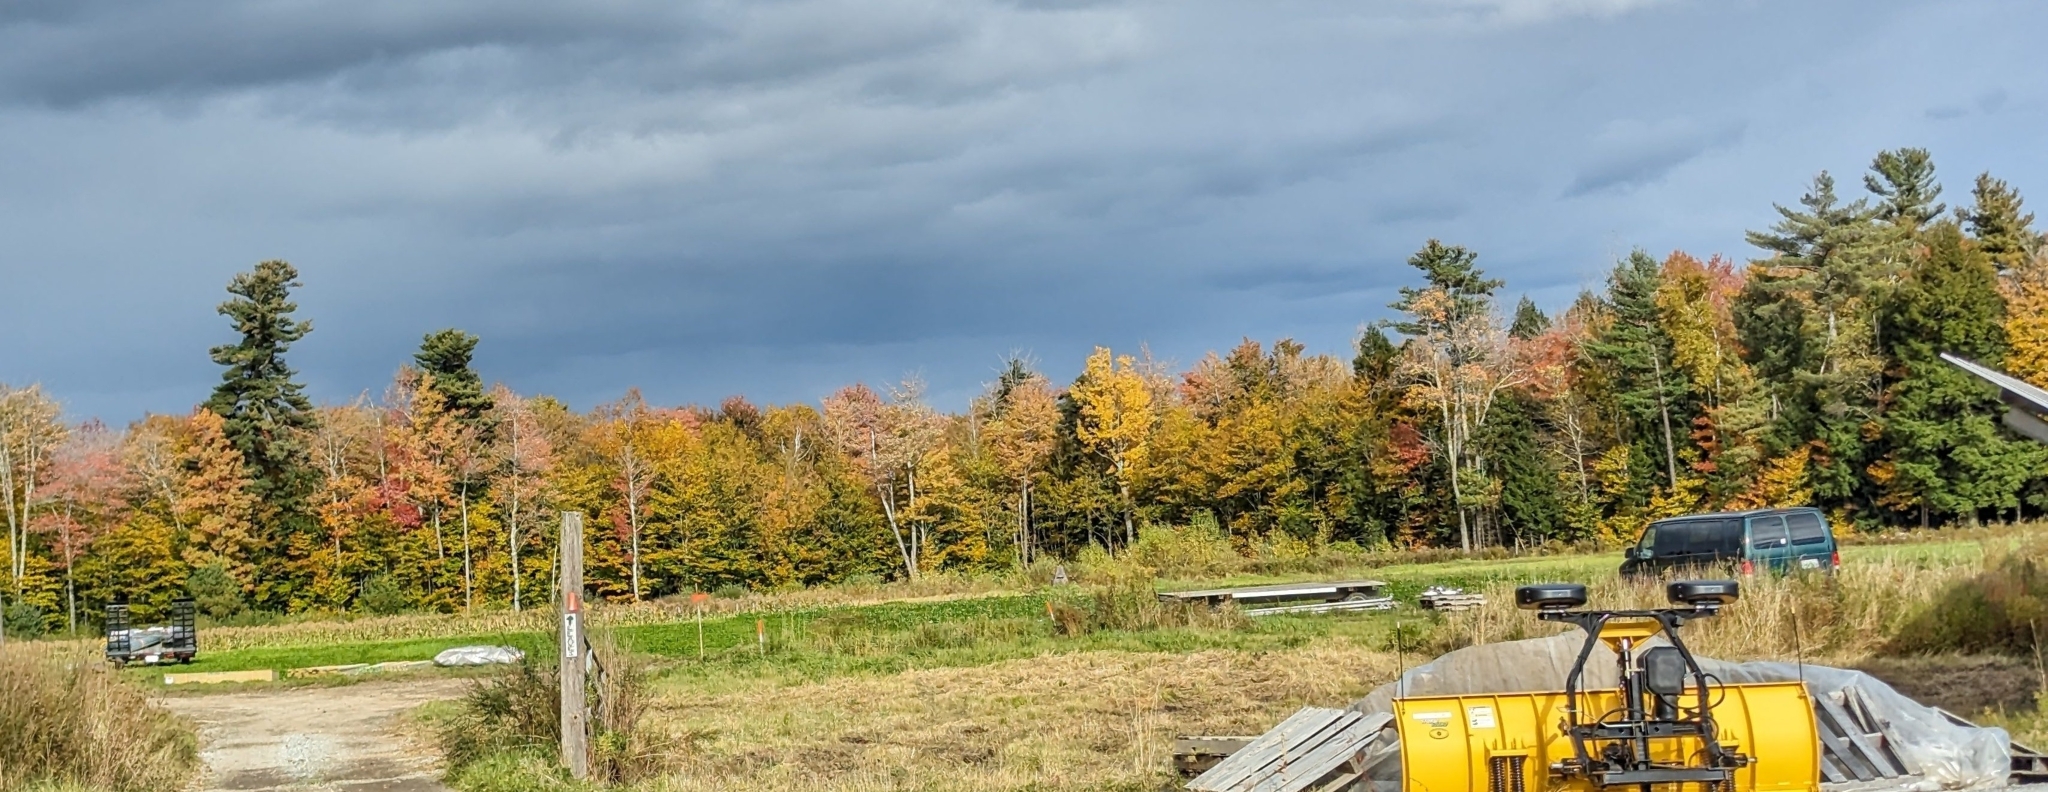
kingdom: Plantae
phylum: Tracheophyta
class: Pinopsida
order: Pinales
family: Pinaceae
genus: Pinus
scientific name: Pinus strobus
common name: Weymouth pine
